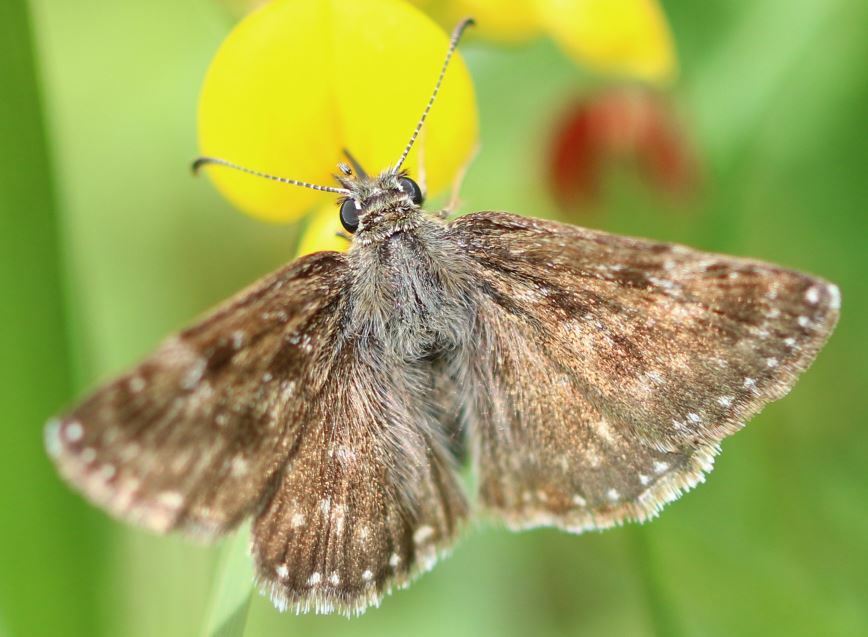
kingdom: Animalia
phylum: Arthropoda
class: Insecta
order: Lepidoptera
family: Hesperiidae
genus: Erynnis
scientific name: Erynnis tages
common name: Dingy skipper
